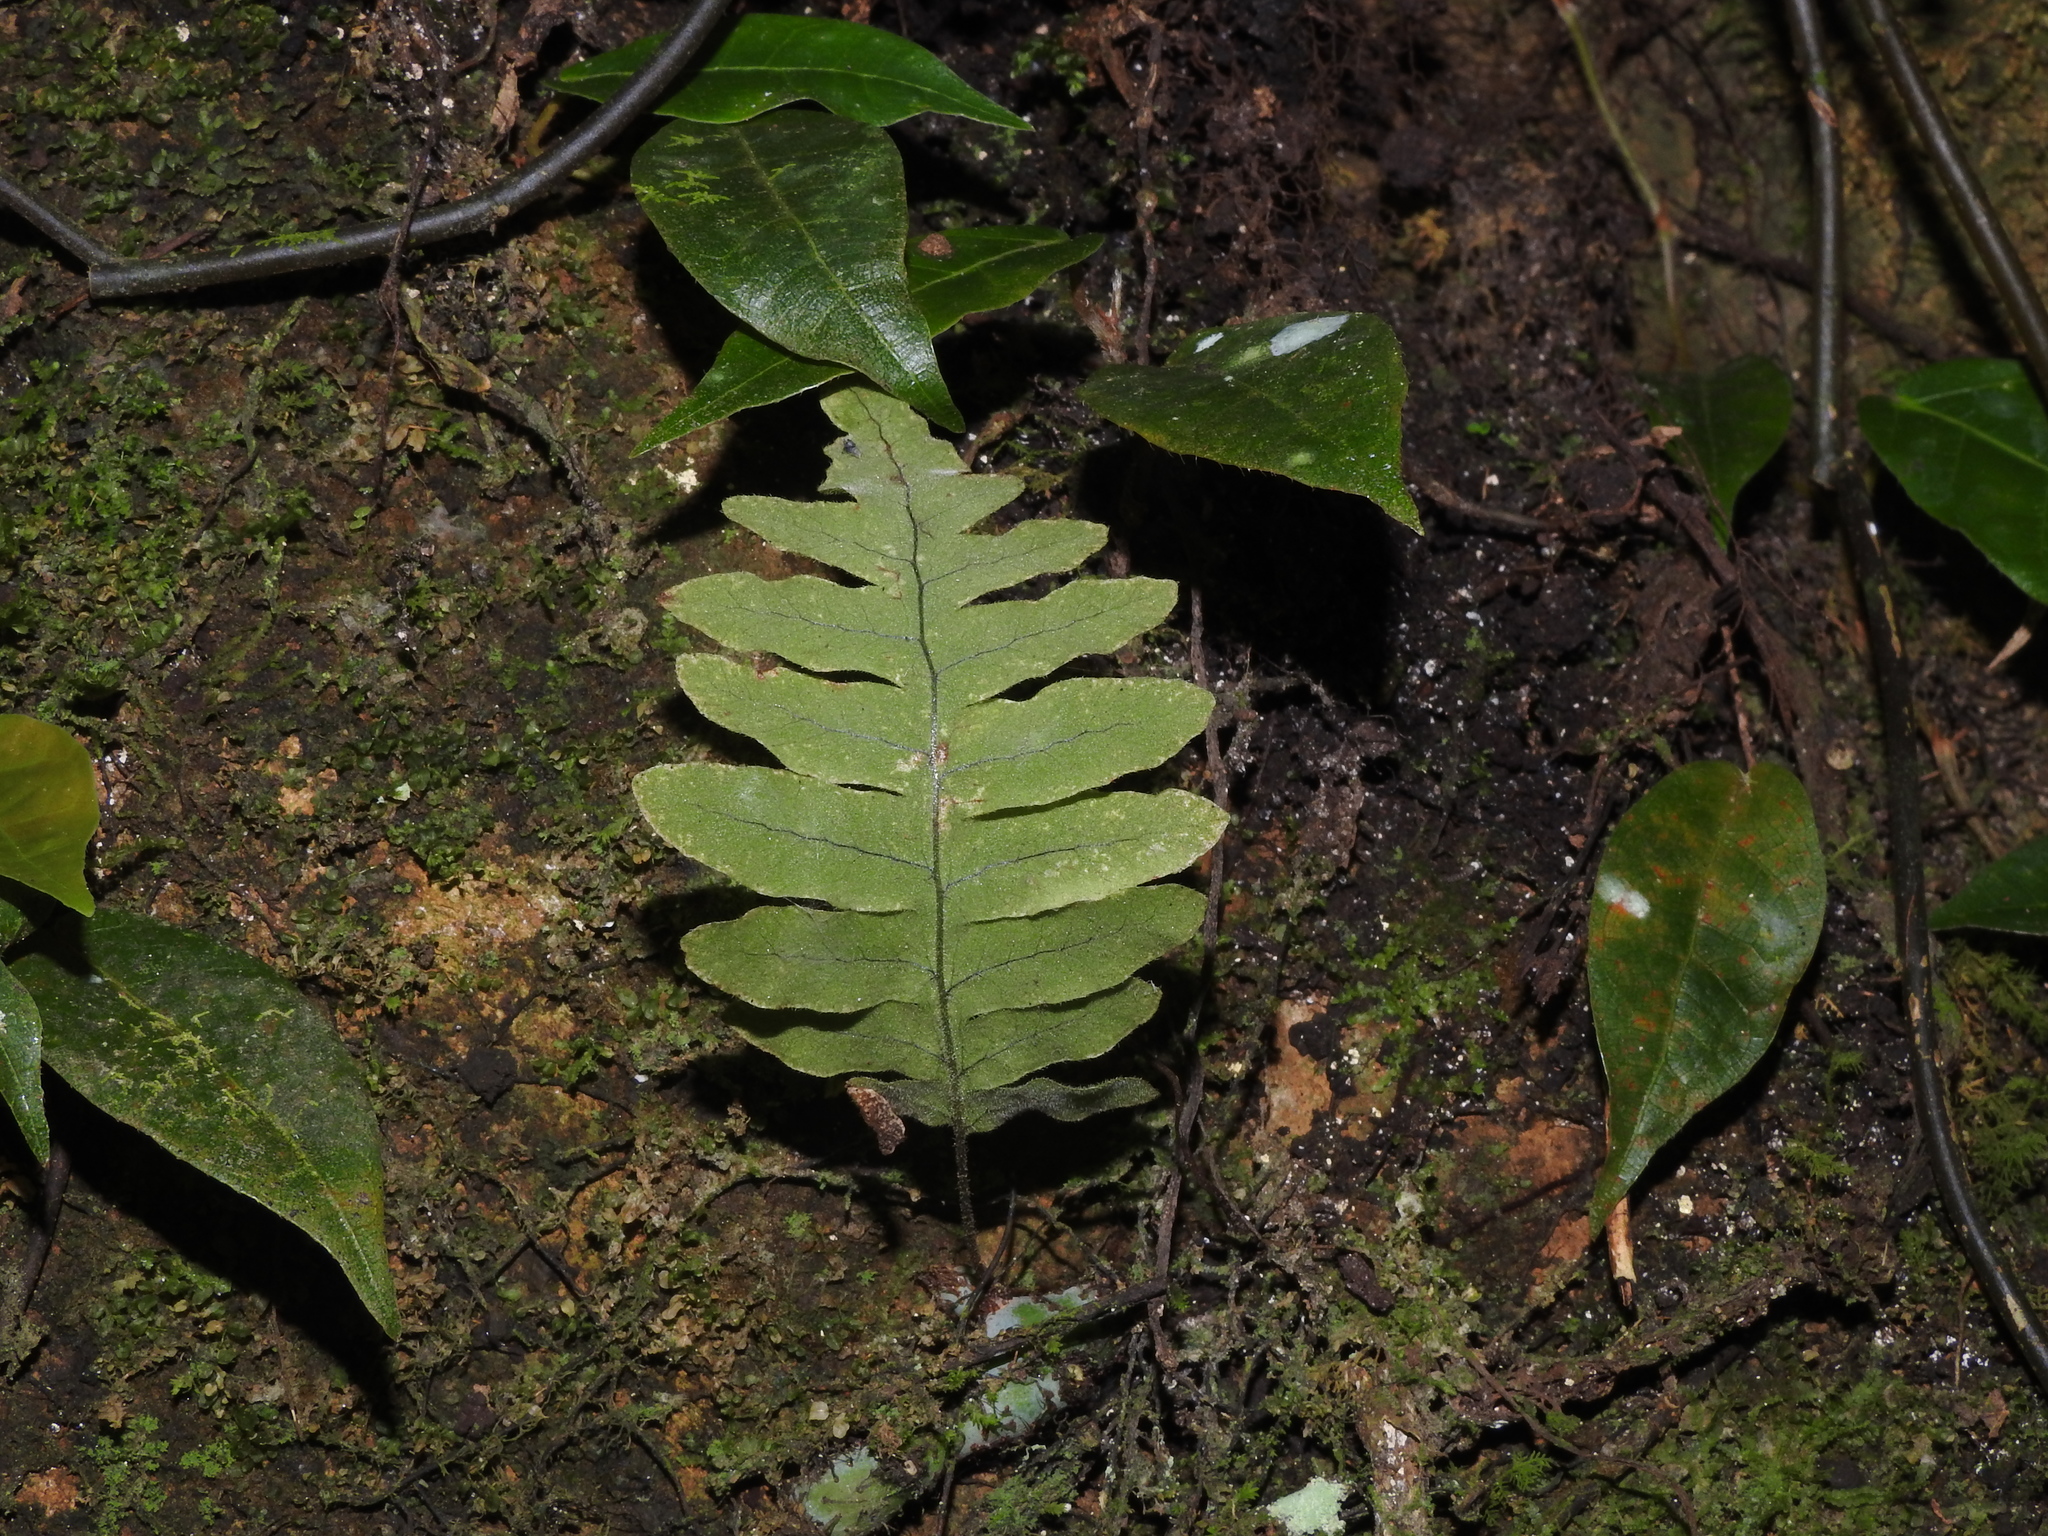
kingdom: Plantae
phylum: Tracheophyta
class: Polypodiopsida
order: Polypodiales
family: Polypodiaceae
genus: Goniophlebium
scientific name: Goniophlebium niponicum
